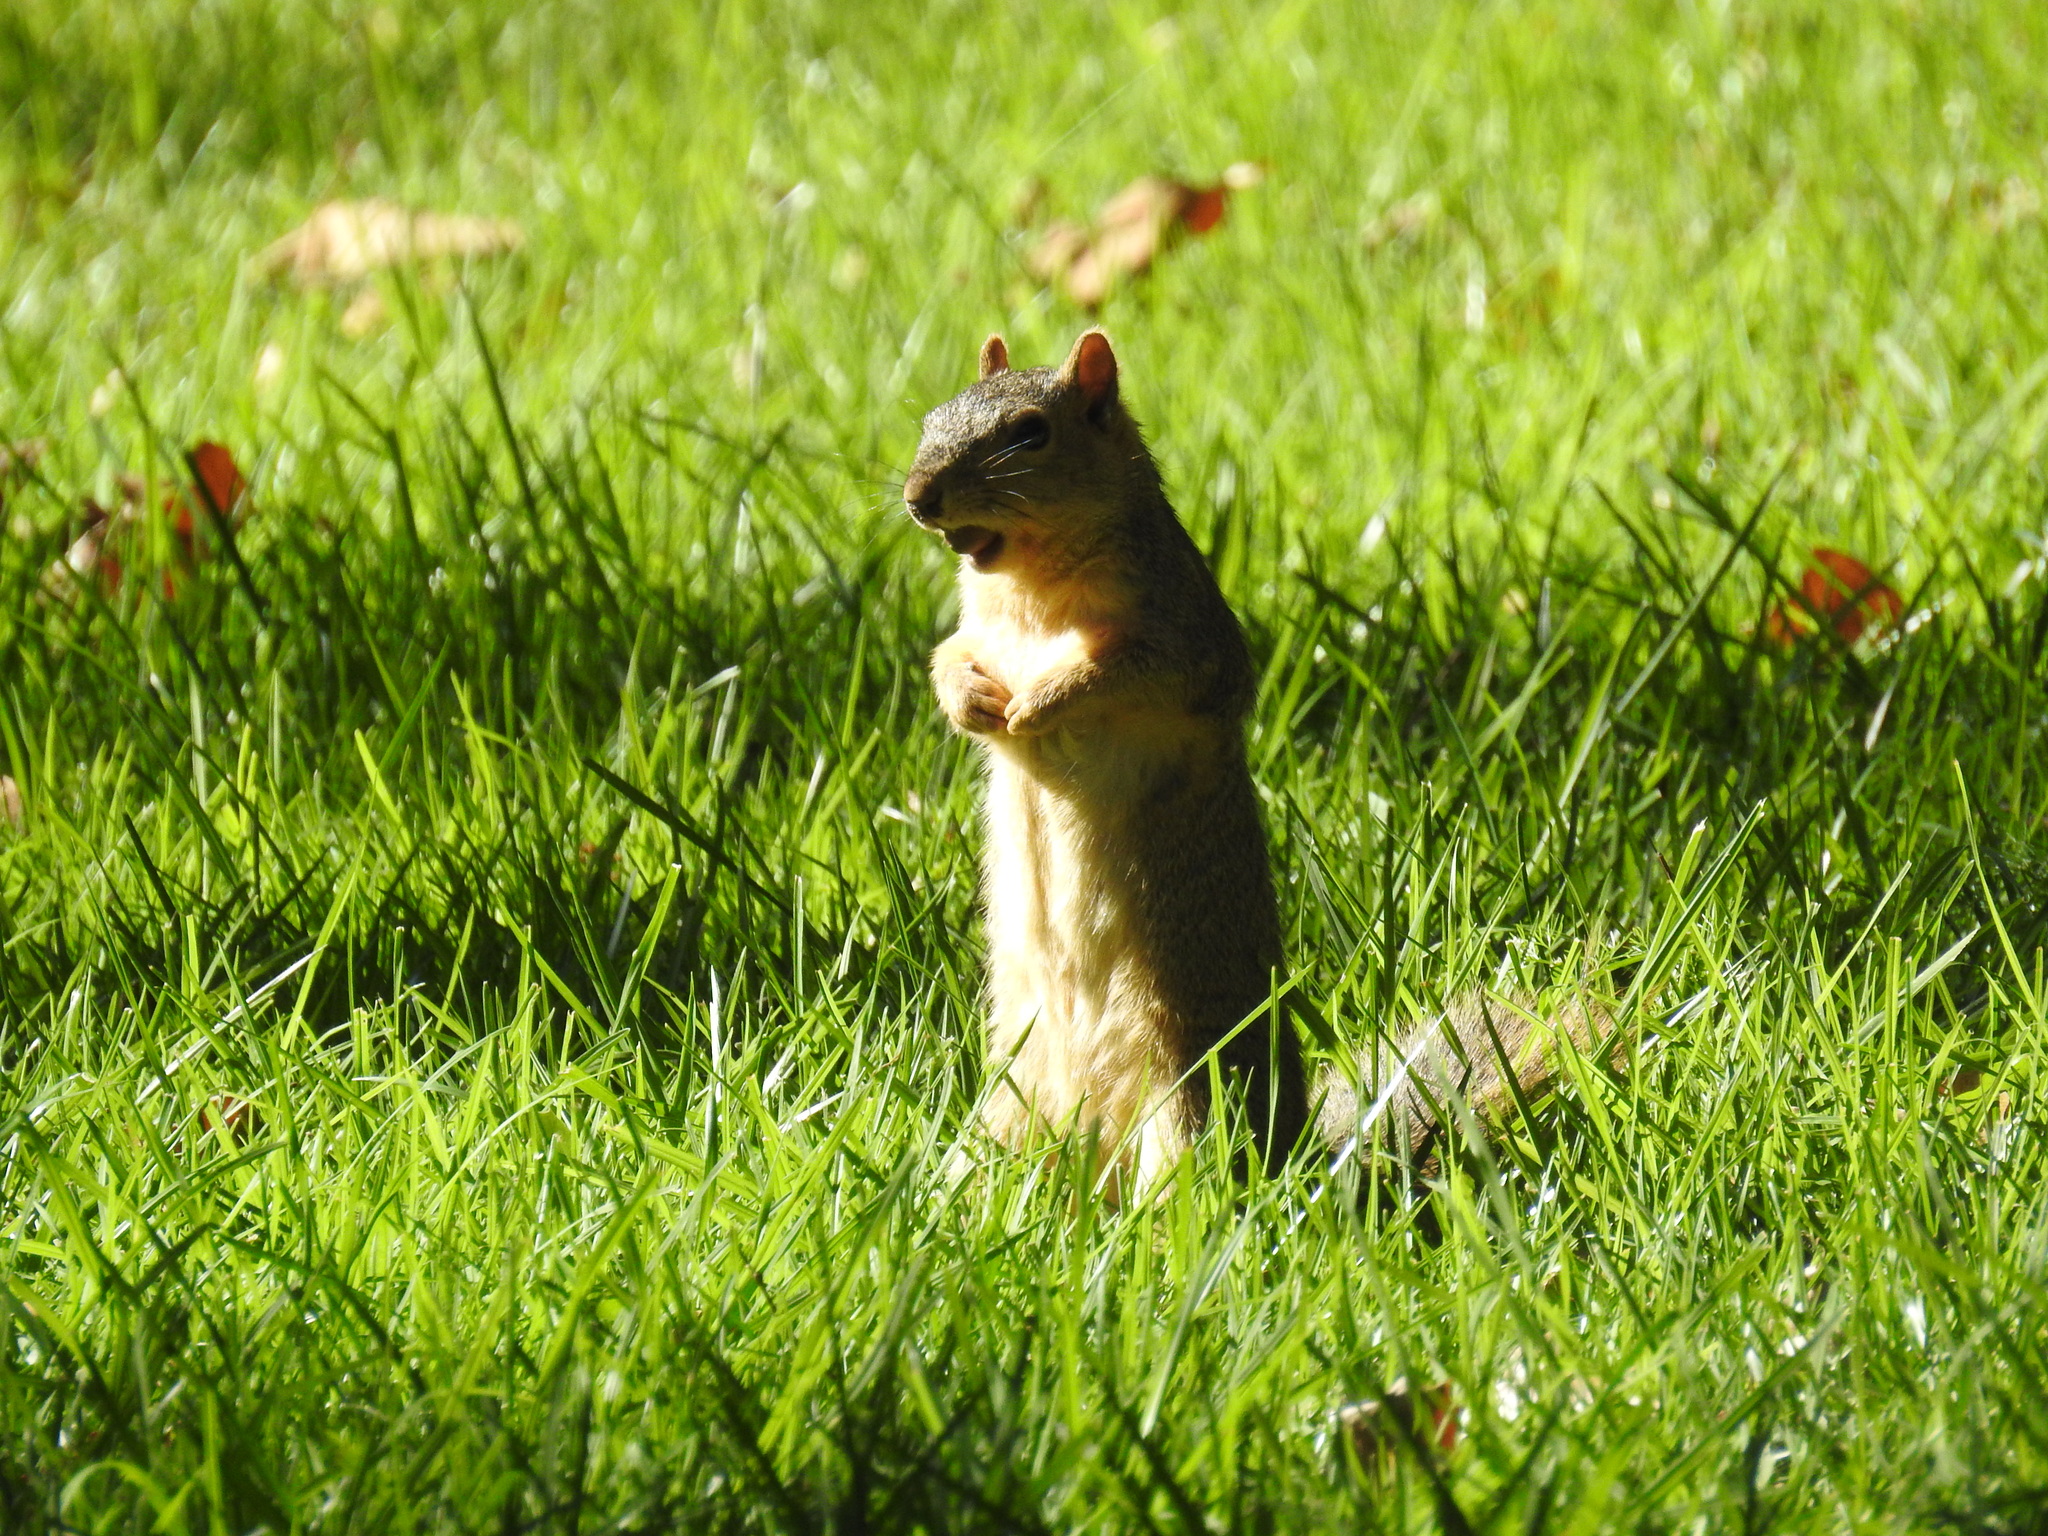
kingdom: Animalia
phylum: Chordata
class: Mammalia
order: Rodentia
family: Sciuridae
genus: Sciurus
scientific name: Sciurus niger
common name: Fox squirrel
